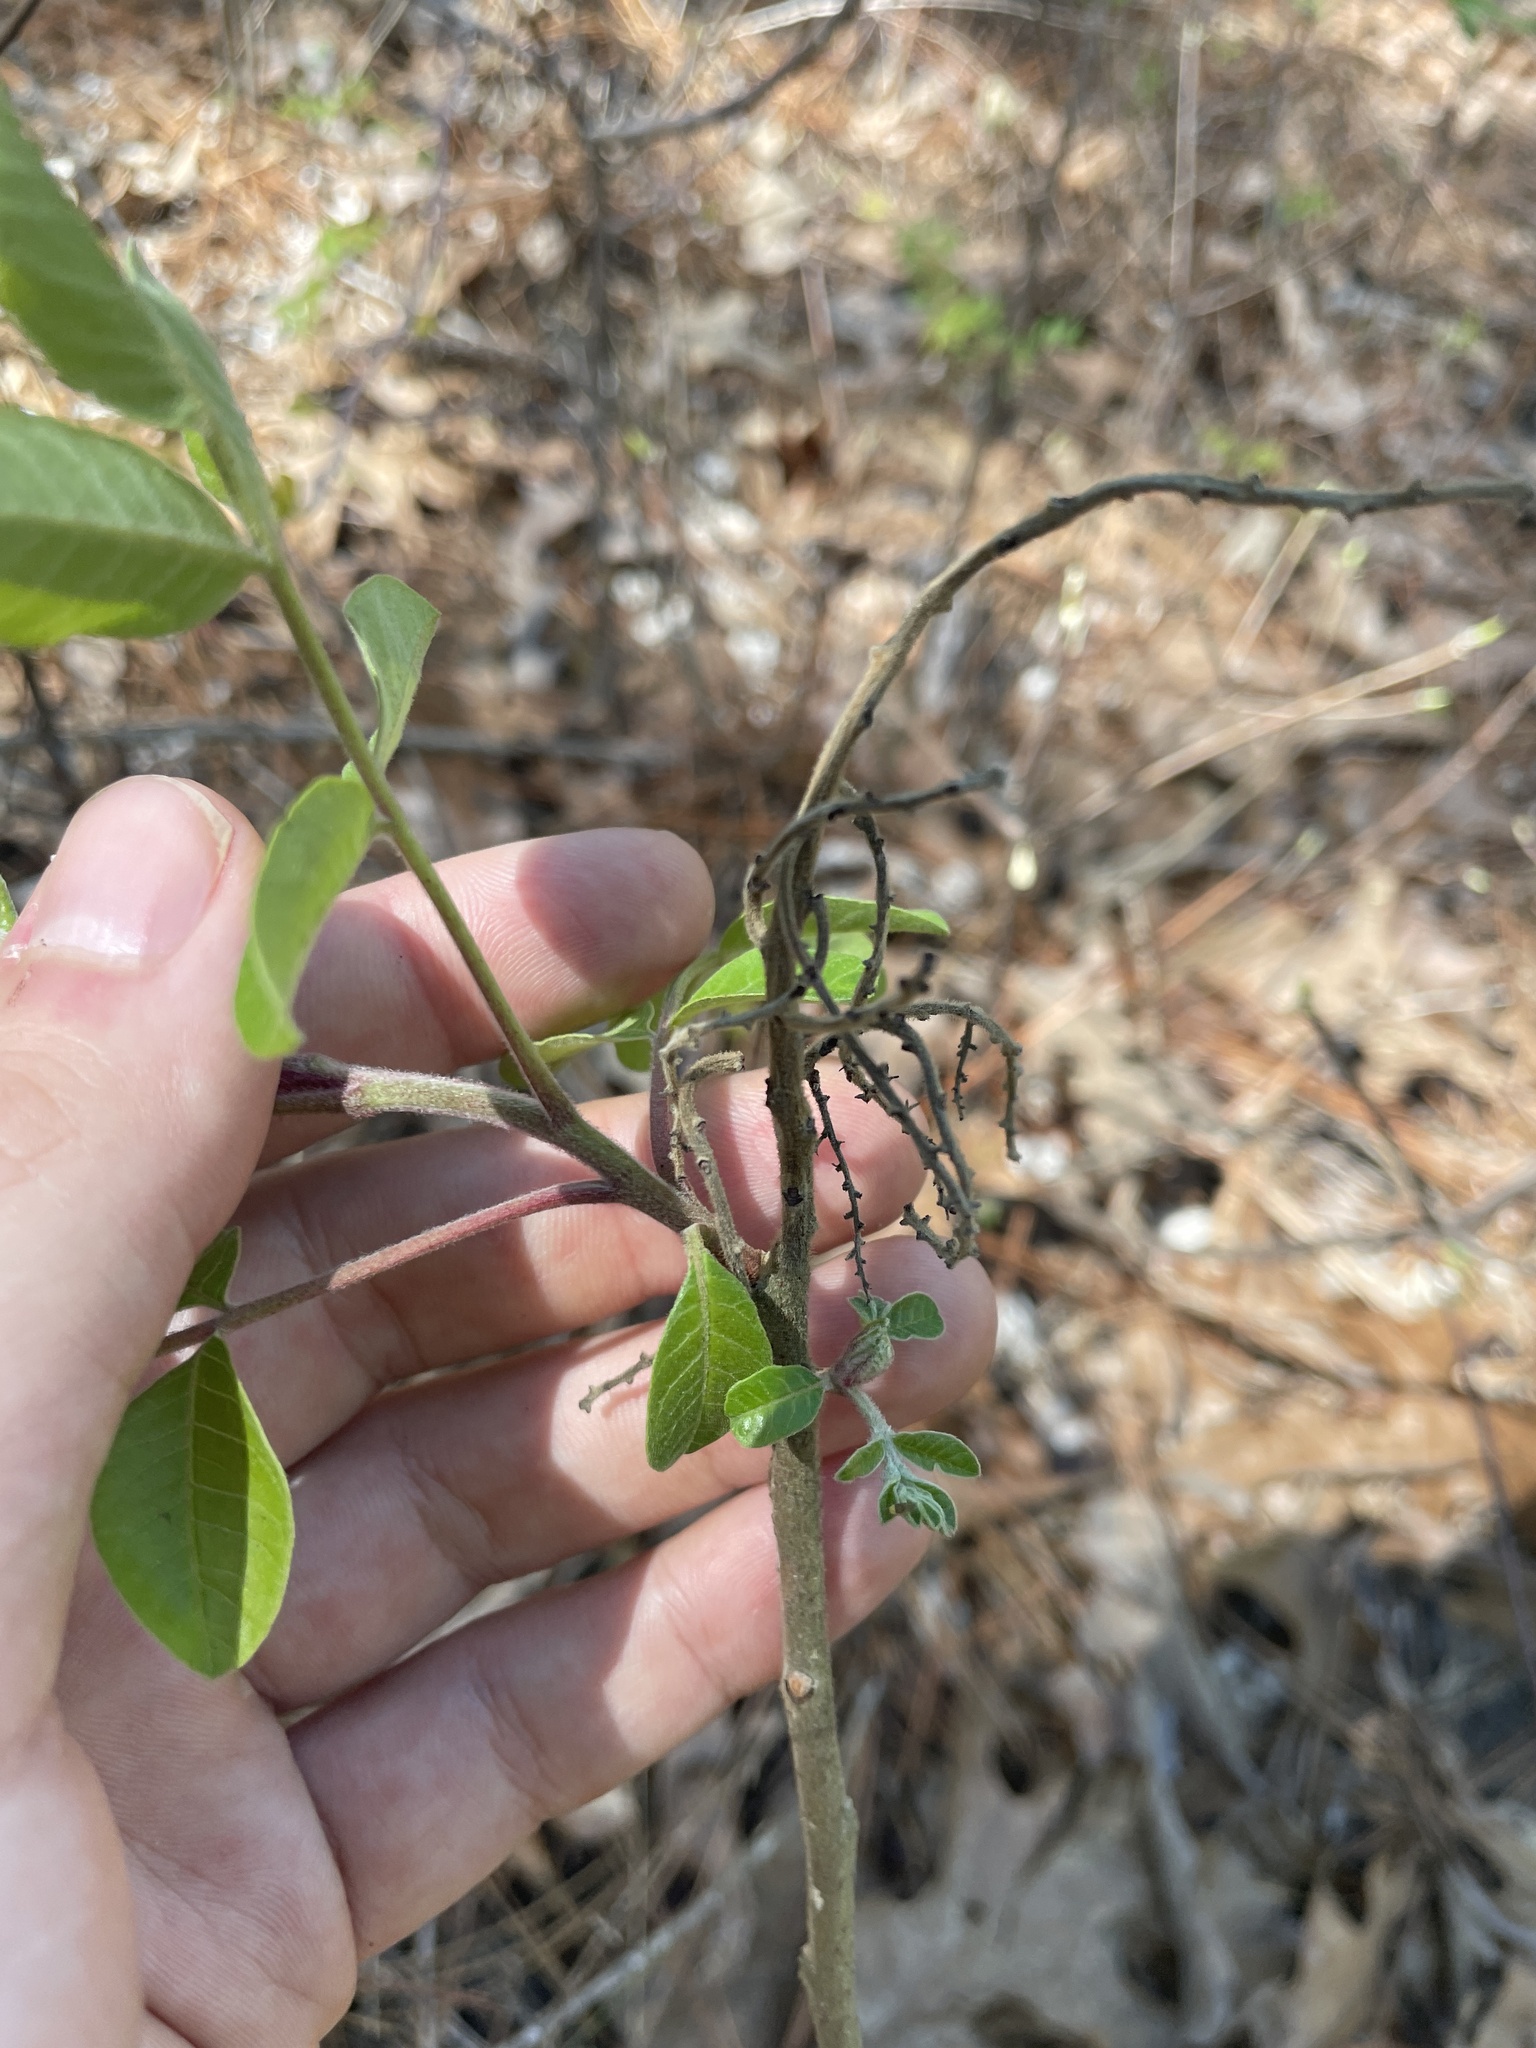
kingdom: Plantae
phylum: Tracheophyta
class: Magnoliopsida
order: Sapindales
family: Anacardiaceae
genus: Rhus
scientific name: Rhus copallina
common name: Shining sumac
